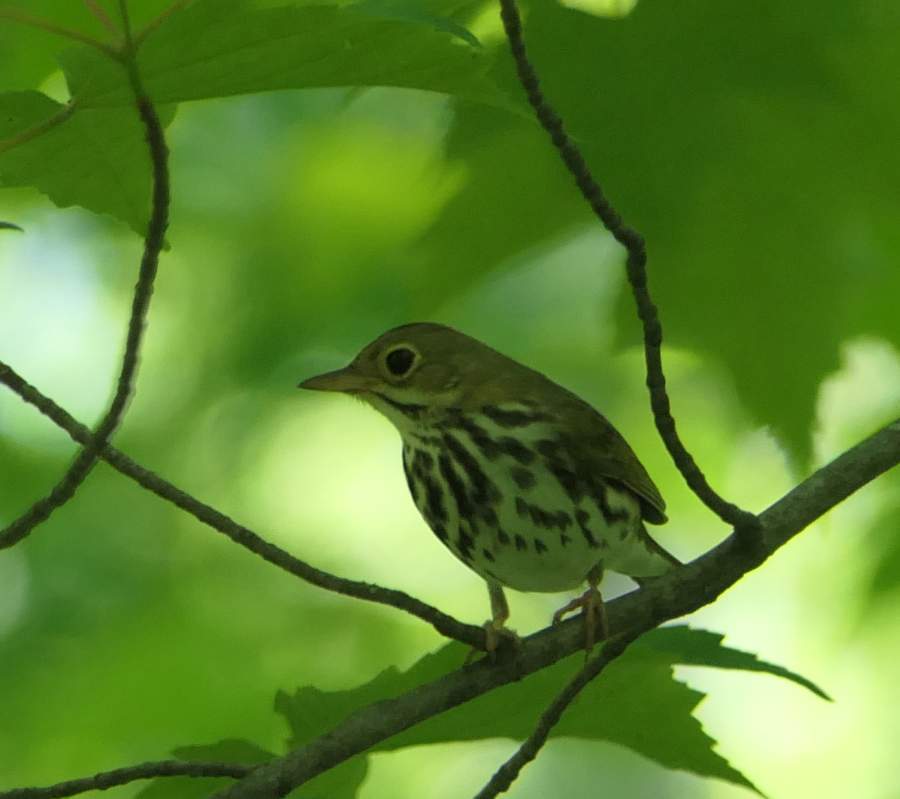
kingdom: Animalia
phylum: Chordata
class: Aves
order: Passeriformes
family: Parulidae
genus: Seiurus
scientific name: Seiurus aurocapilla
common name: Ovenbird
